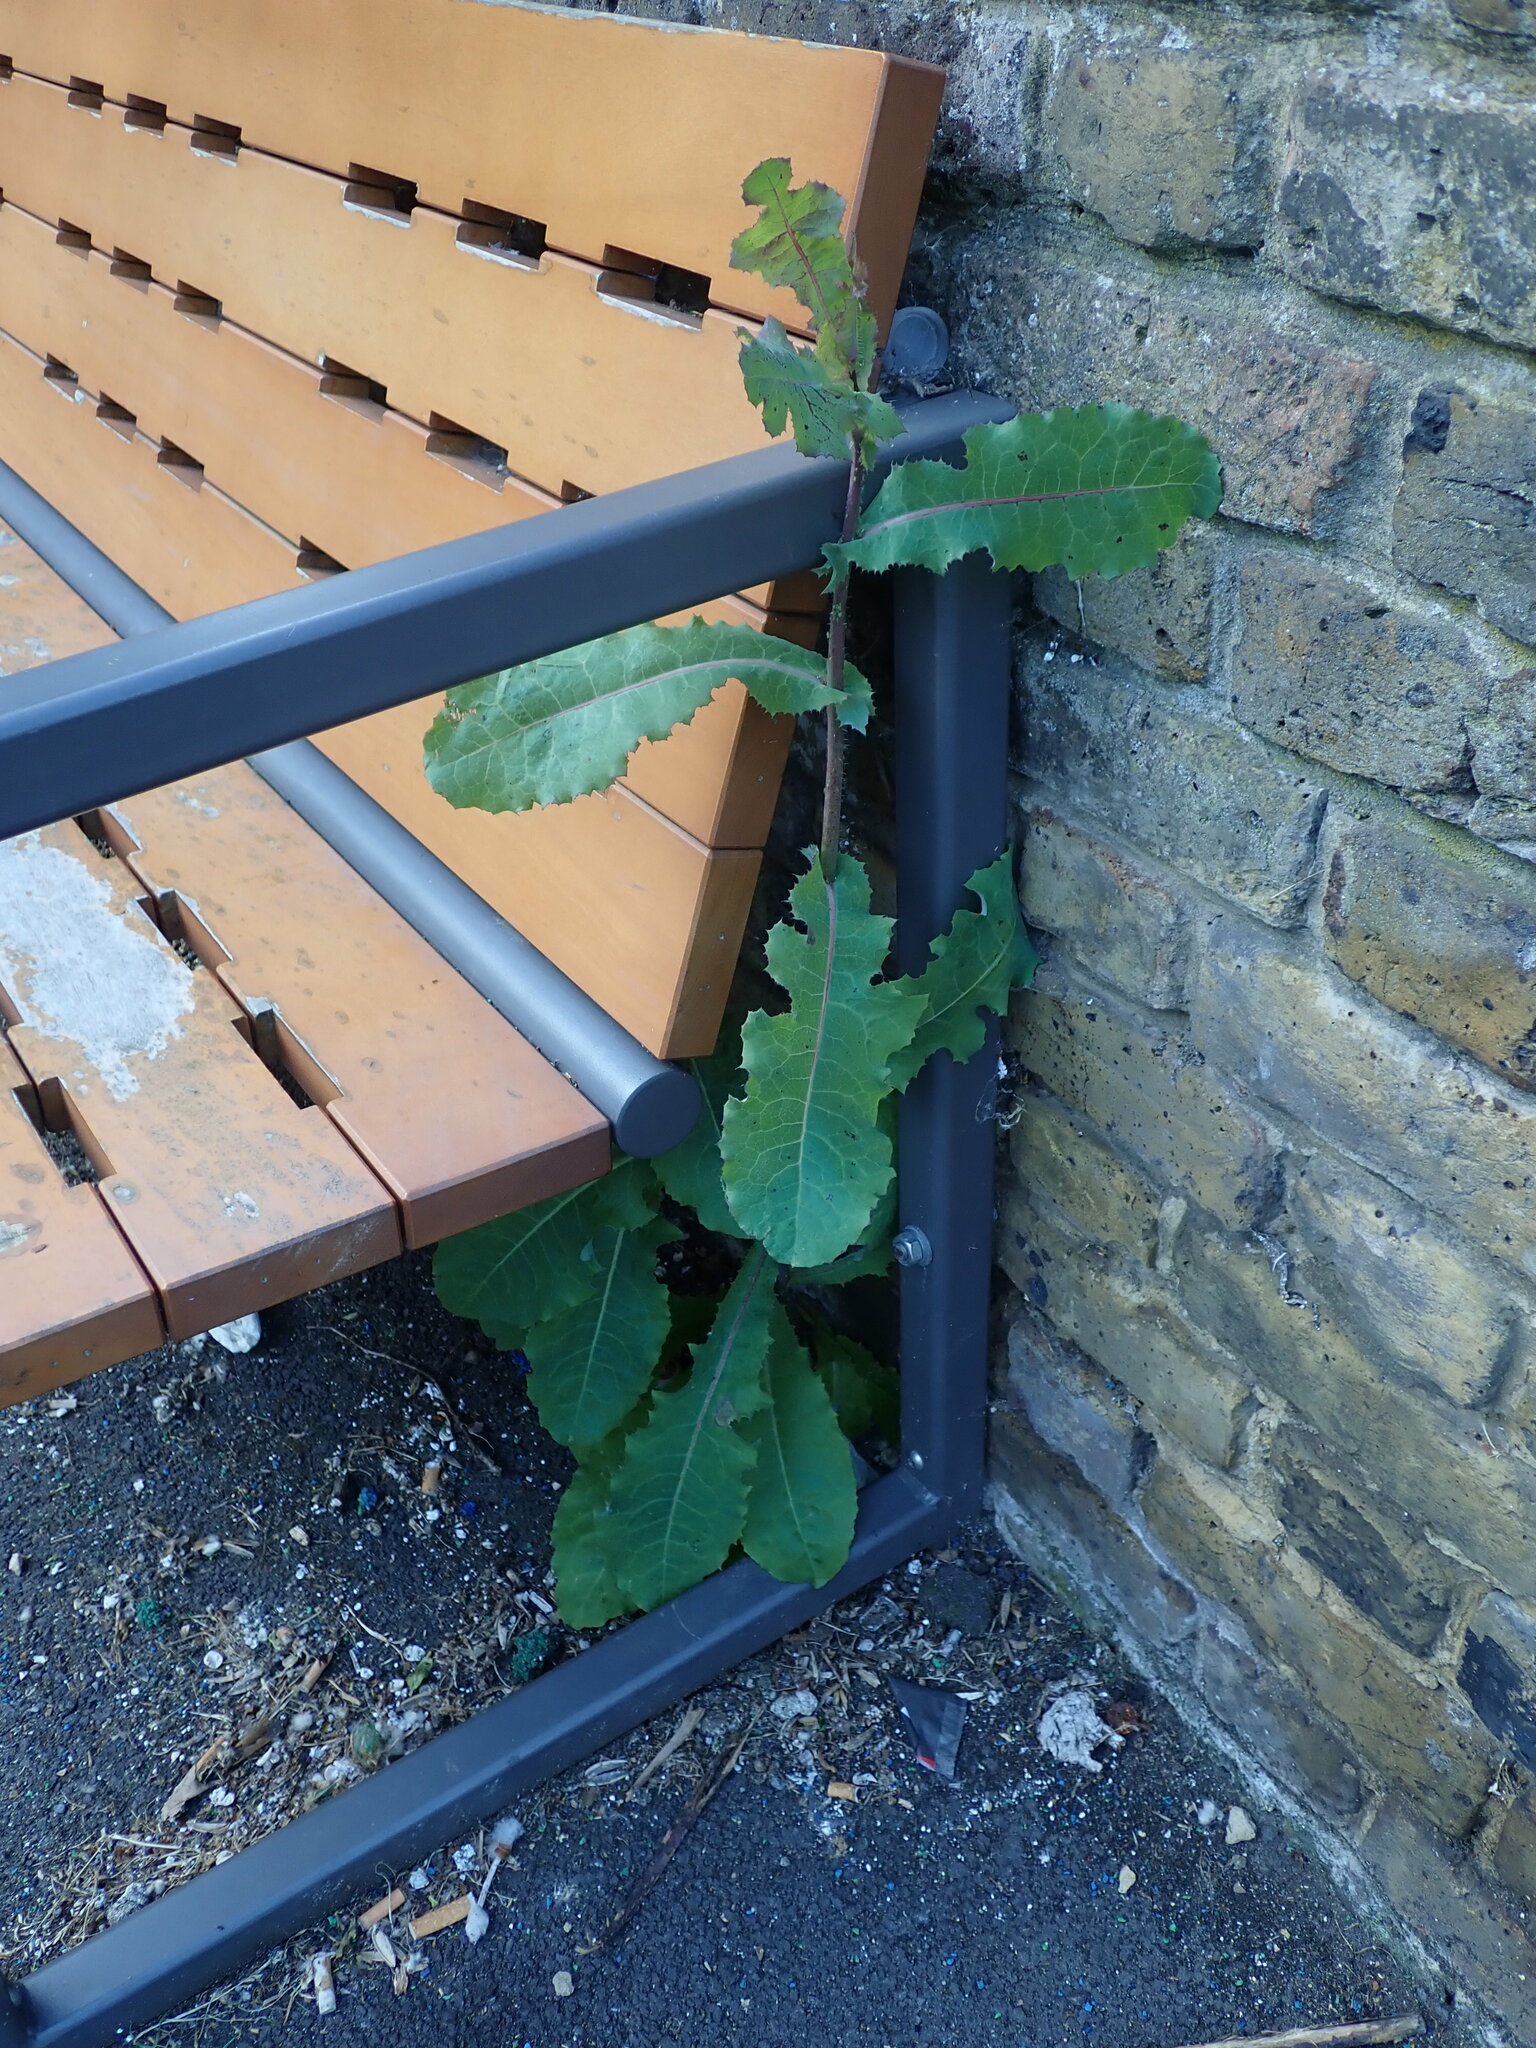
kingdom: Plantae
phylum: Tracheophyta
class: Magnoliopsida
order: Asterales
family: Asteraceae
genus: Lactuca
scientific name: Lactuca virosa
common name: Great lettuce
